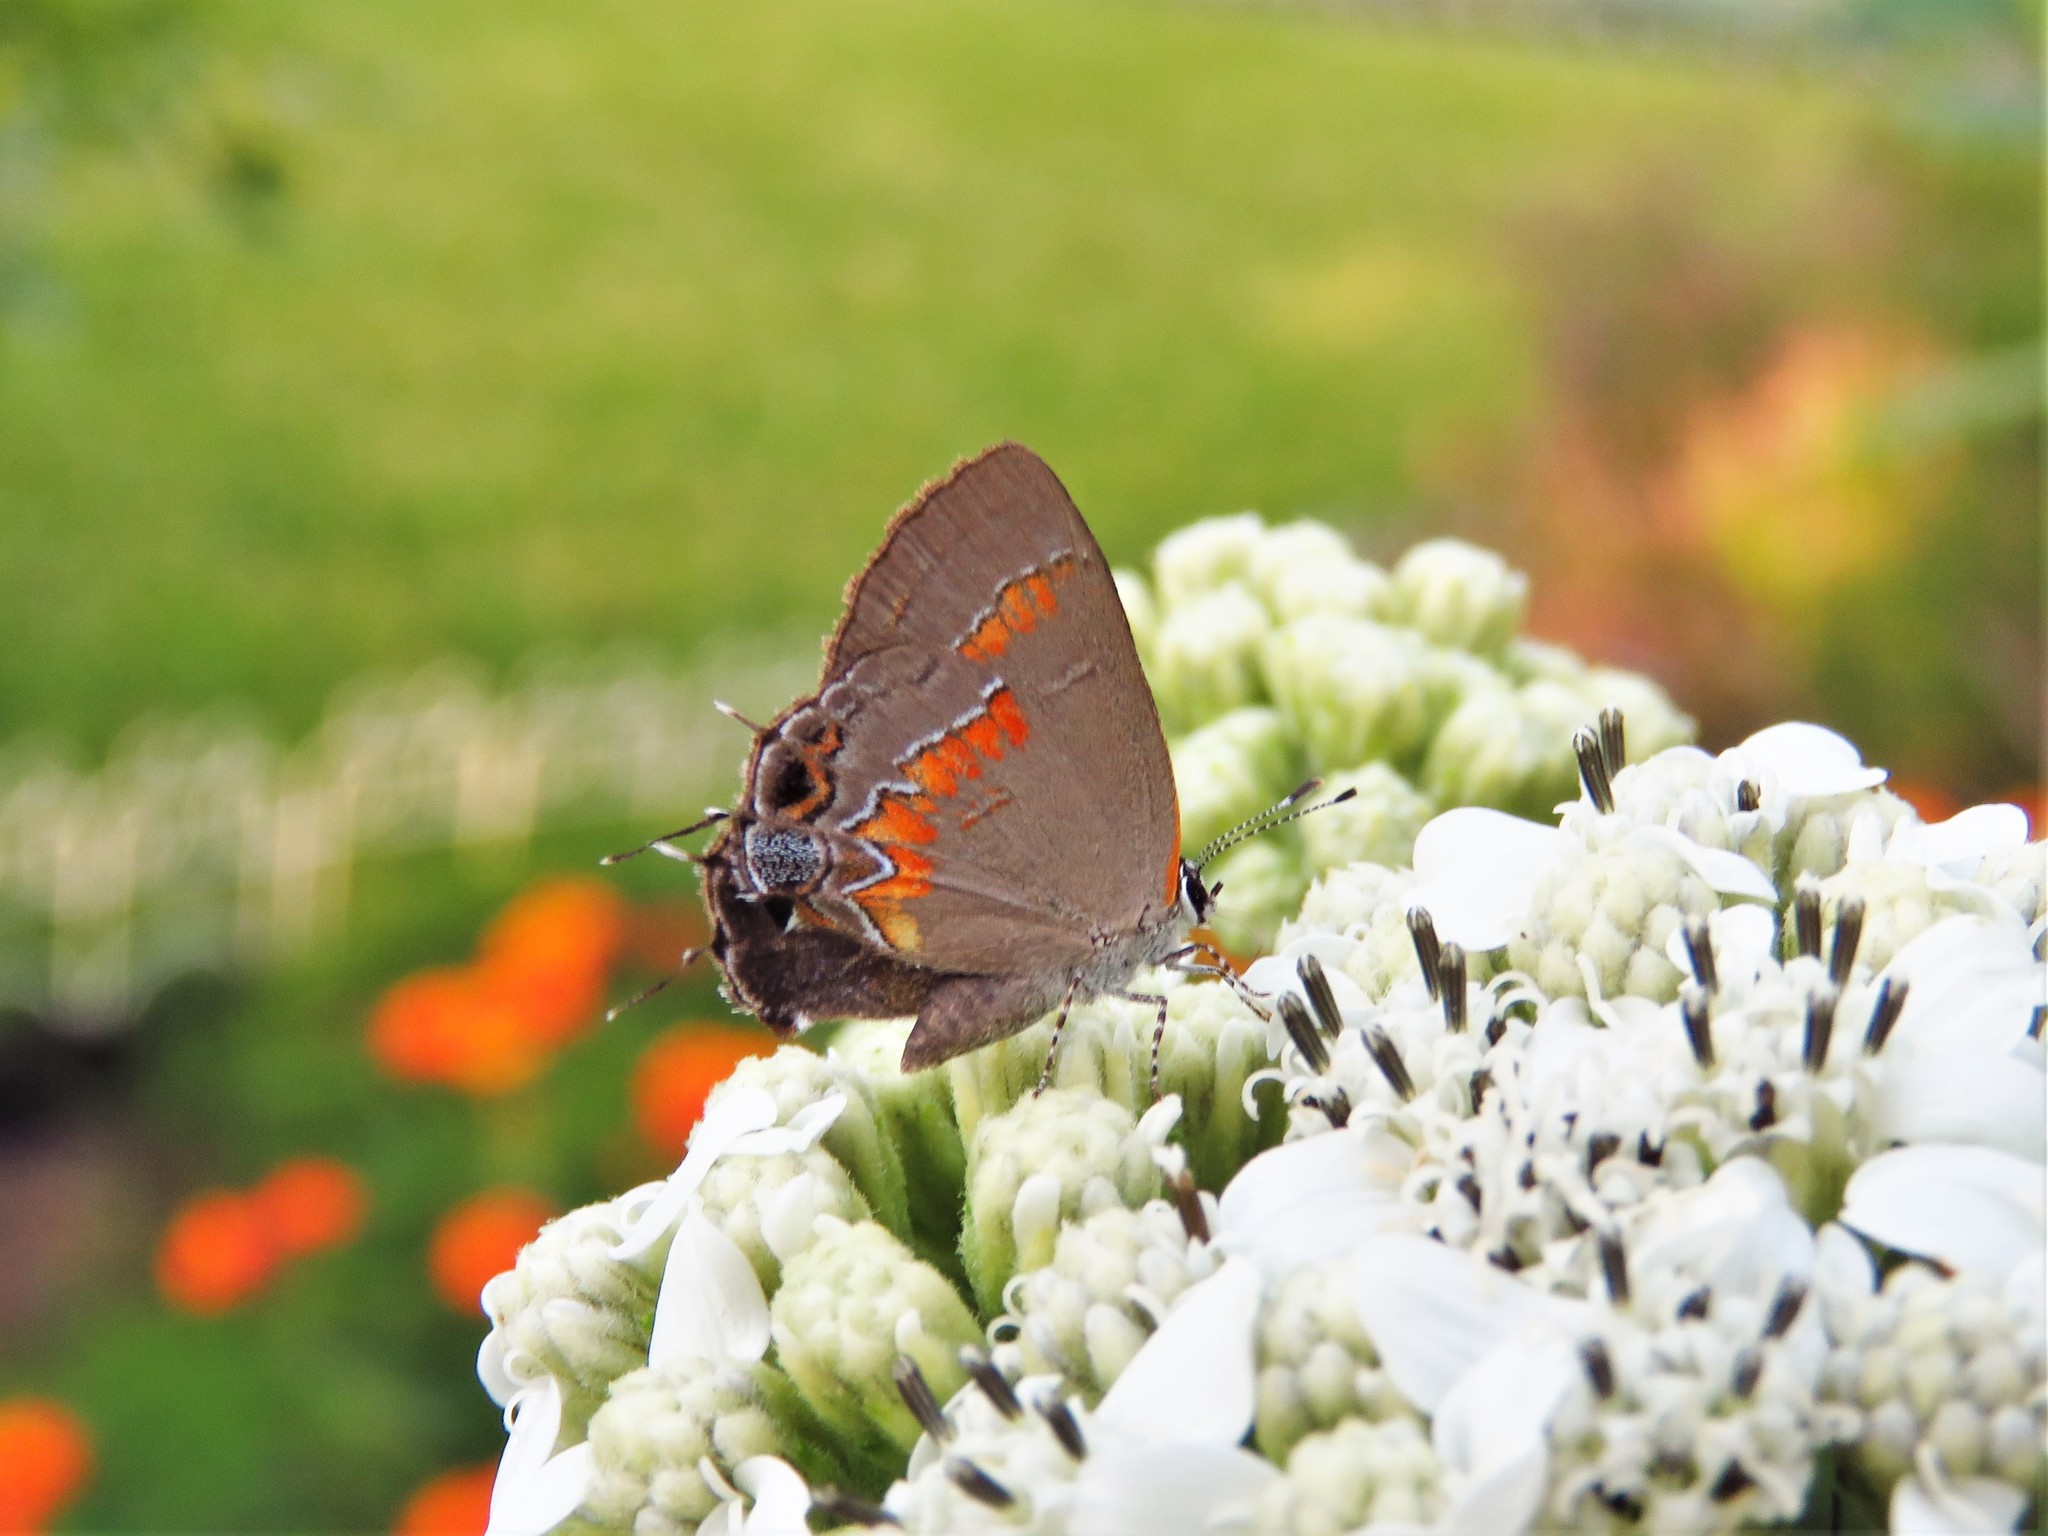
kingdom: Animalia
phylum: Arthropoda
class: Insecta
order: Lepidoptera
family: Lycaenidae
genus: Calycopis
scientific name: Calycopis cecrops
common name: Red-banded hairstreak
